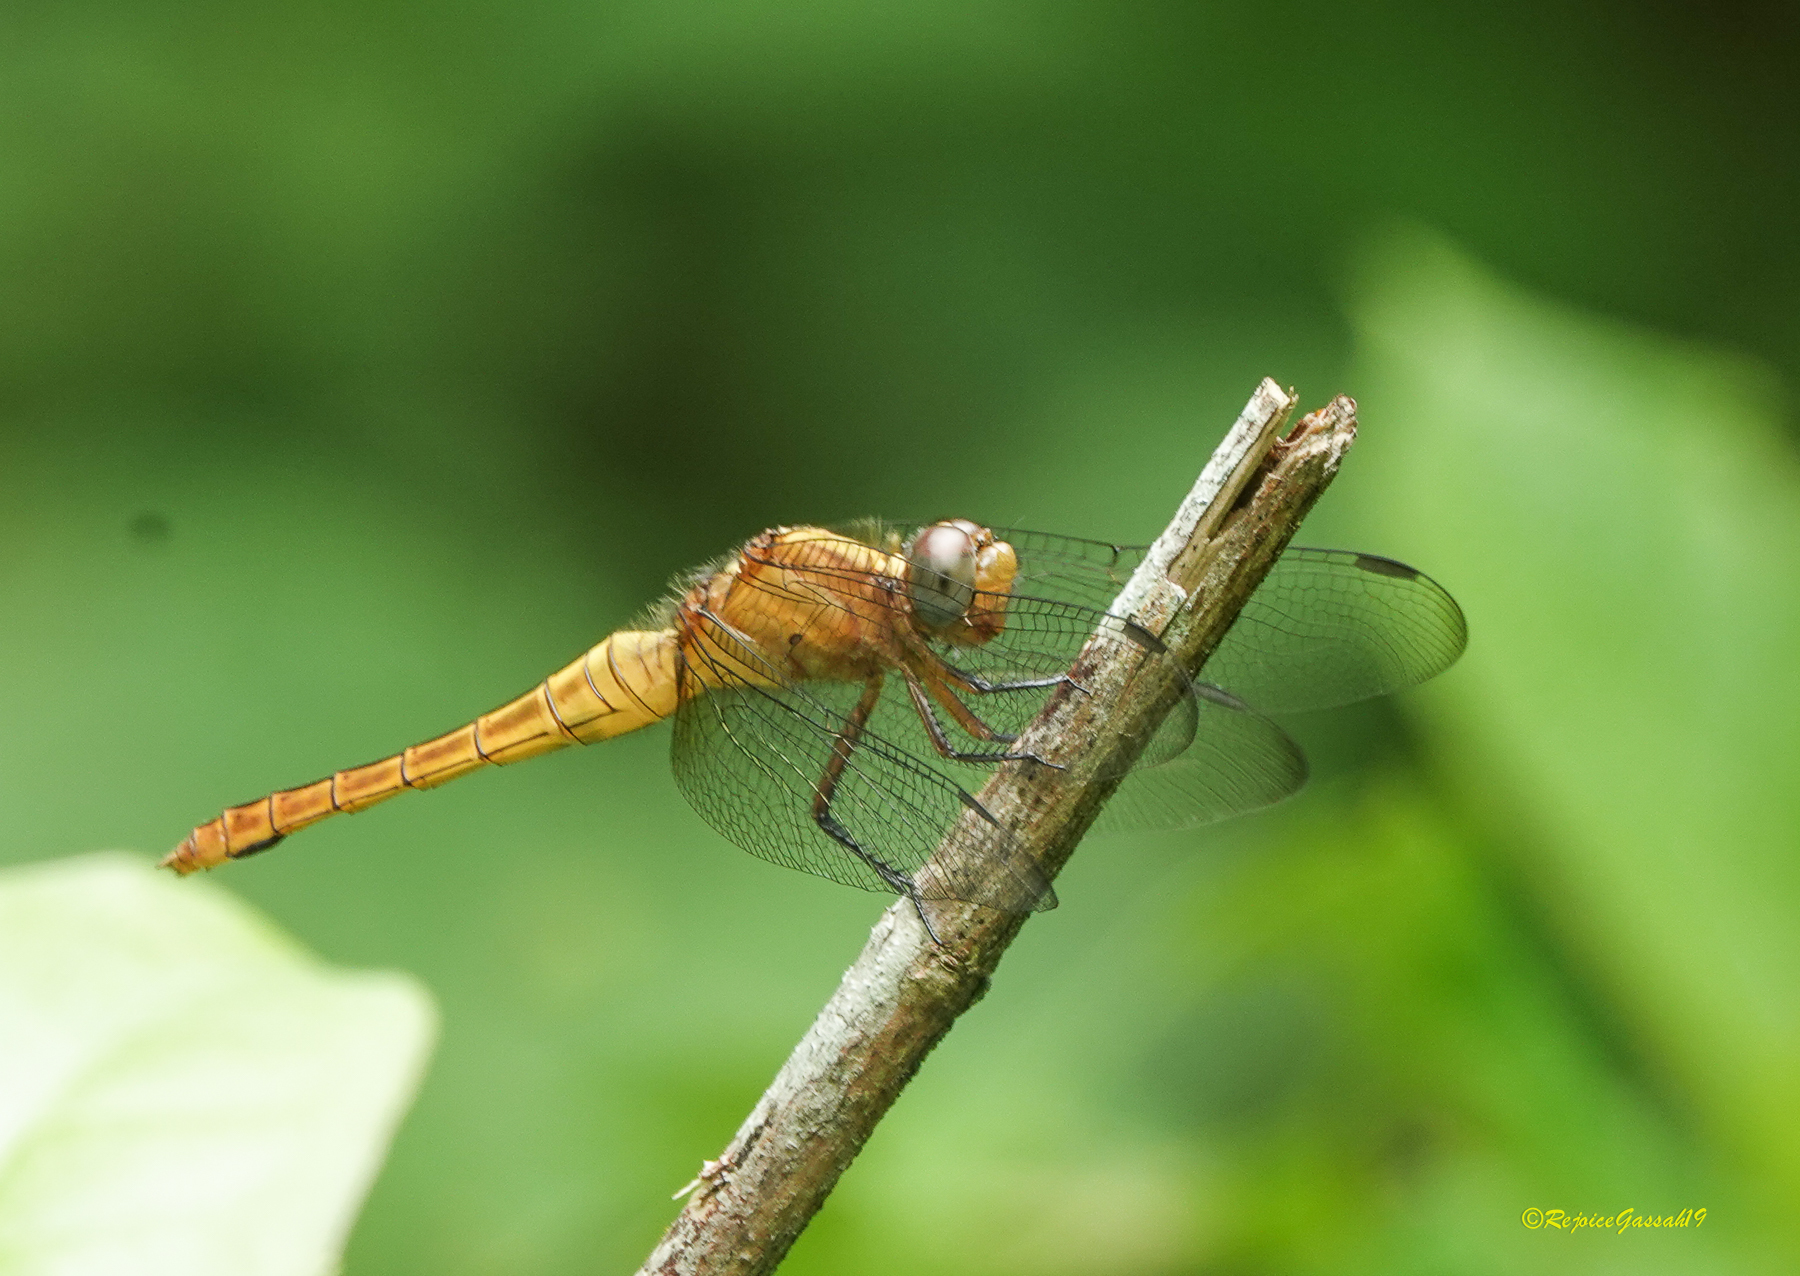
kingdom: Animalia
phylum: Arthropoda
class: Insecta
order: Odonata
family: Libellulidae
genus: Orthetrum
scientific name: Orthetrum pruinosum
